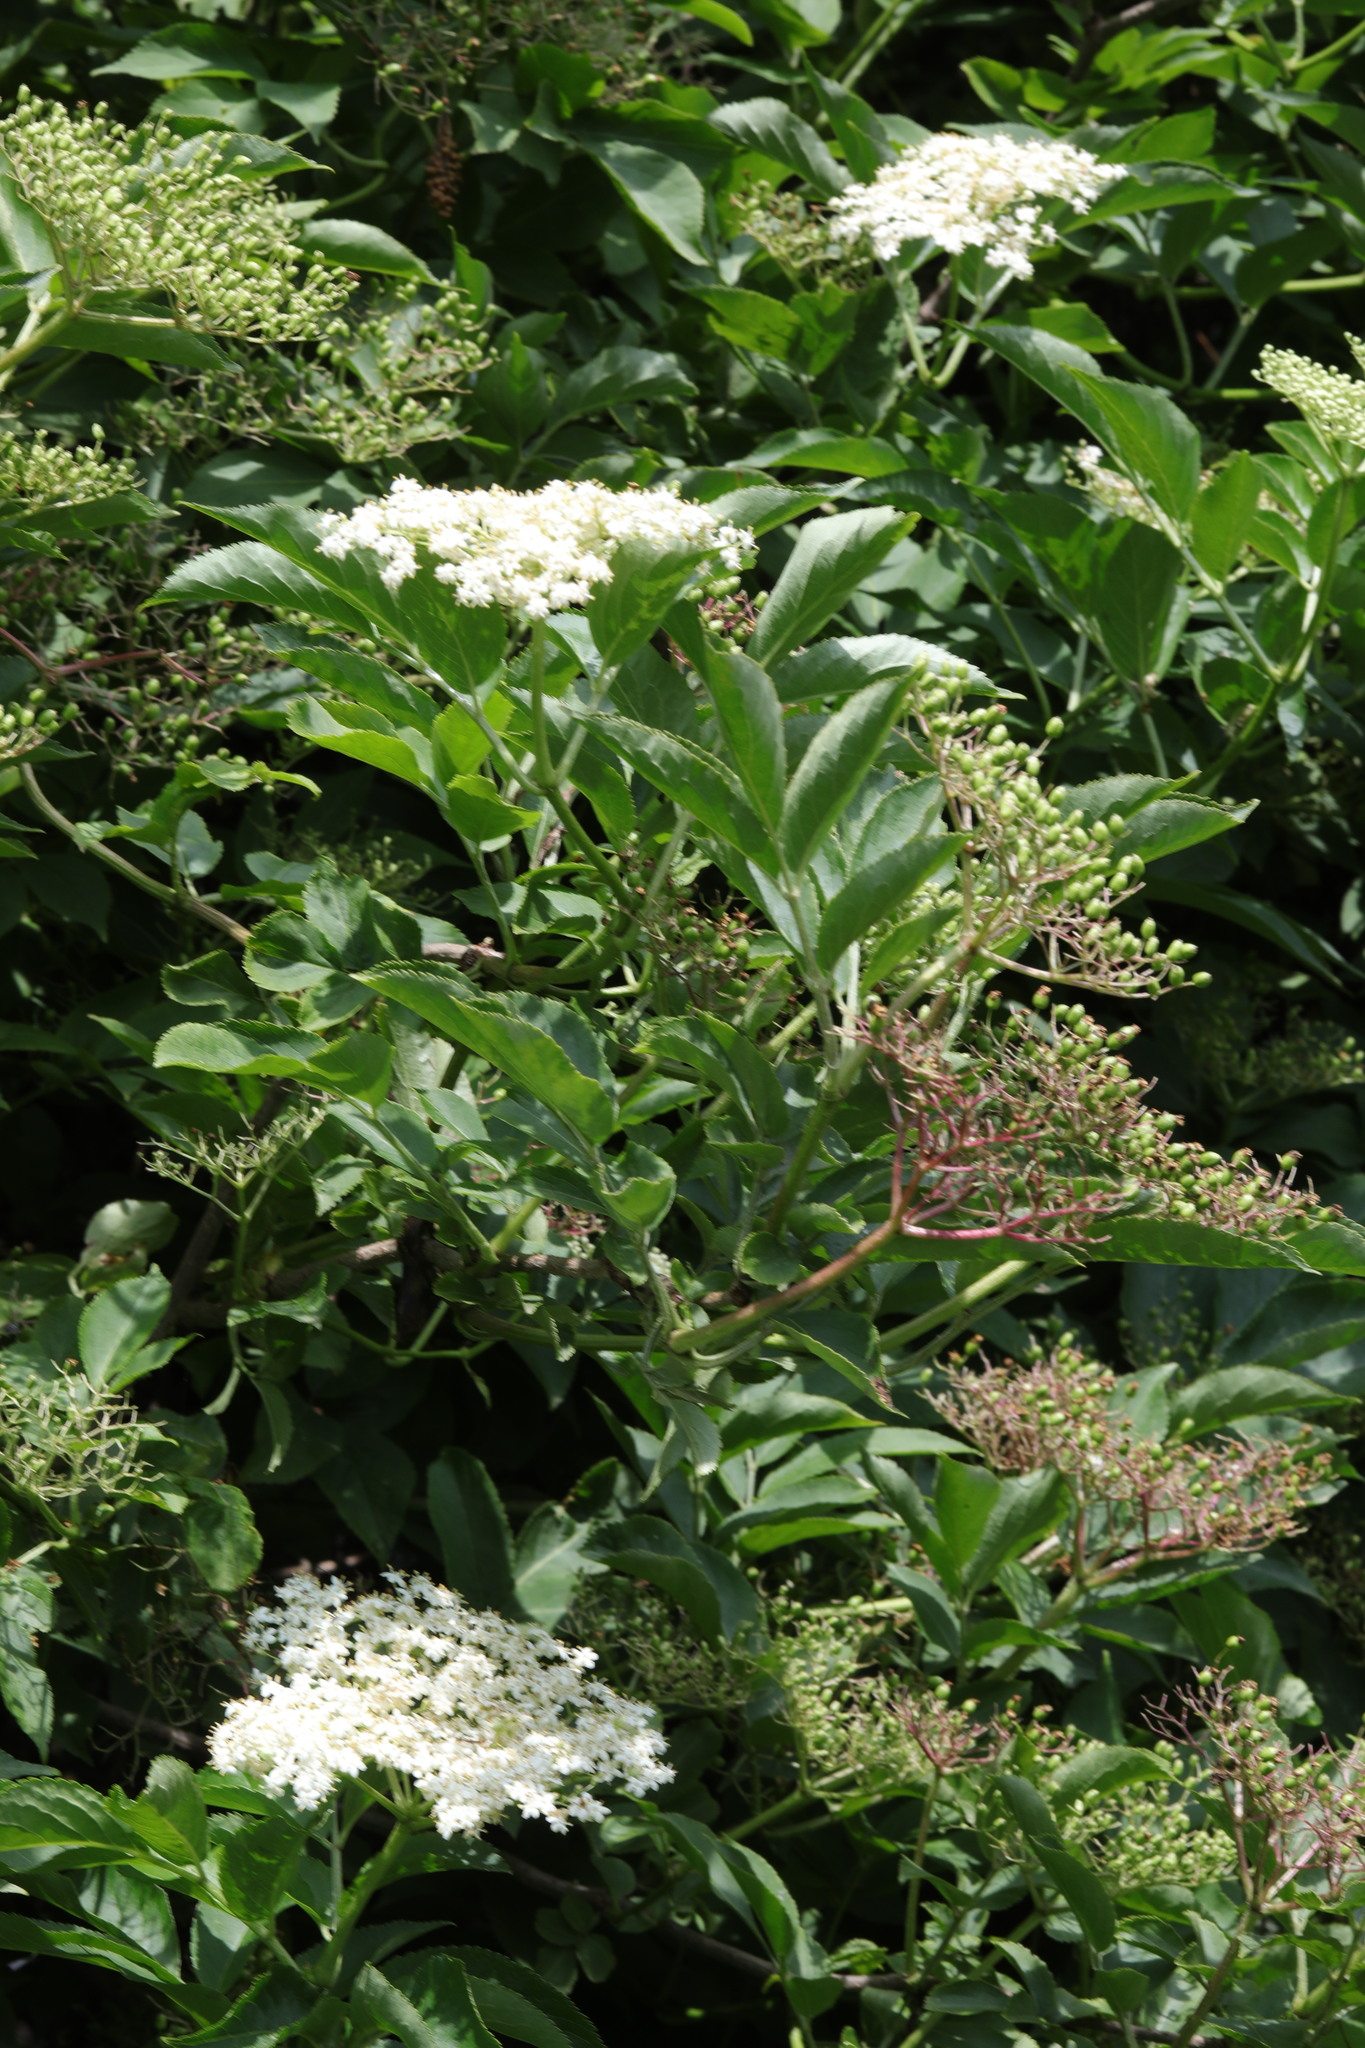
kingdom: Plantae
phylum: Tracheophyta
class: Magnoliopsida
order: Dipsacales
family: Viburnaceae
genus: Sambucus
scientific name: Sambucus nigra
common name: Elder
